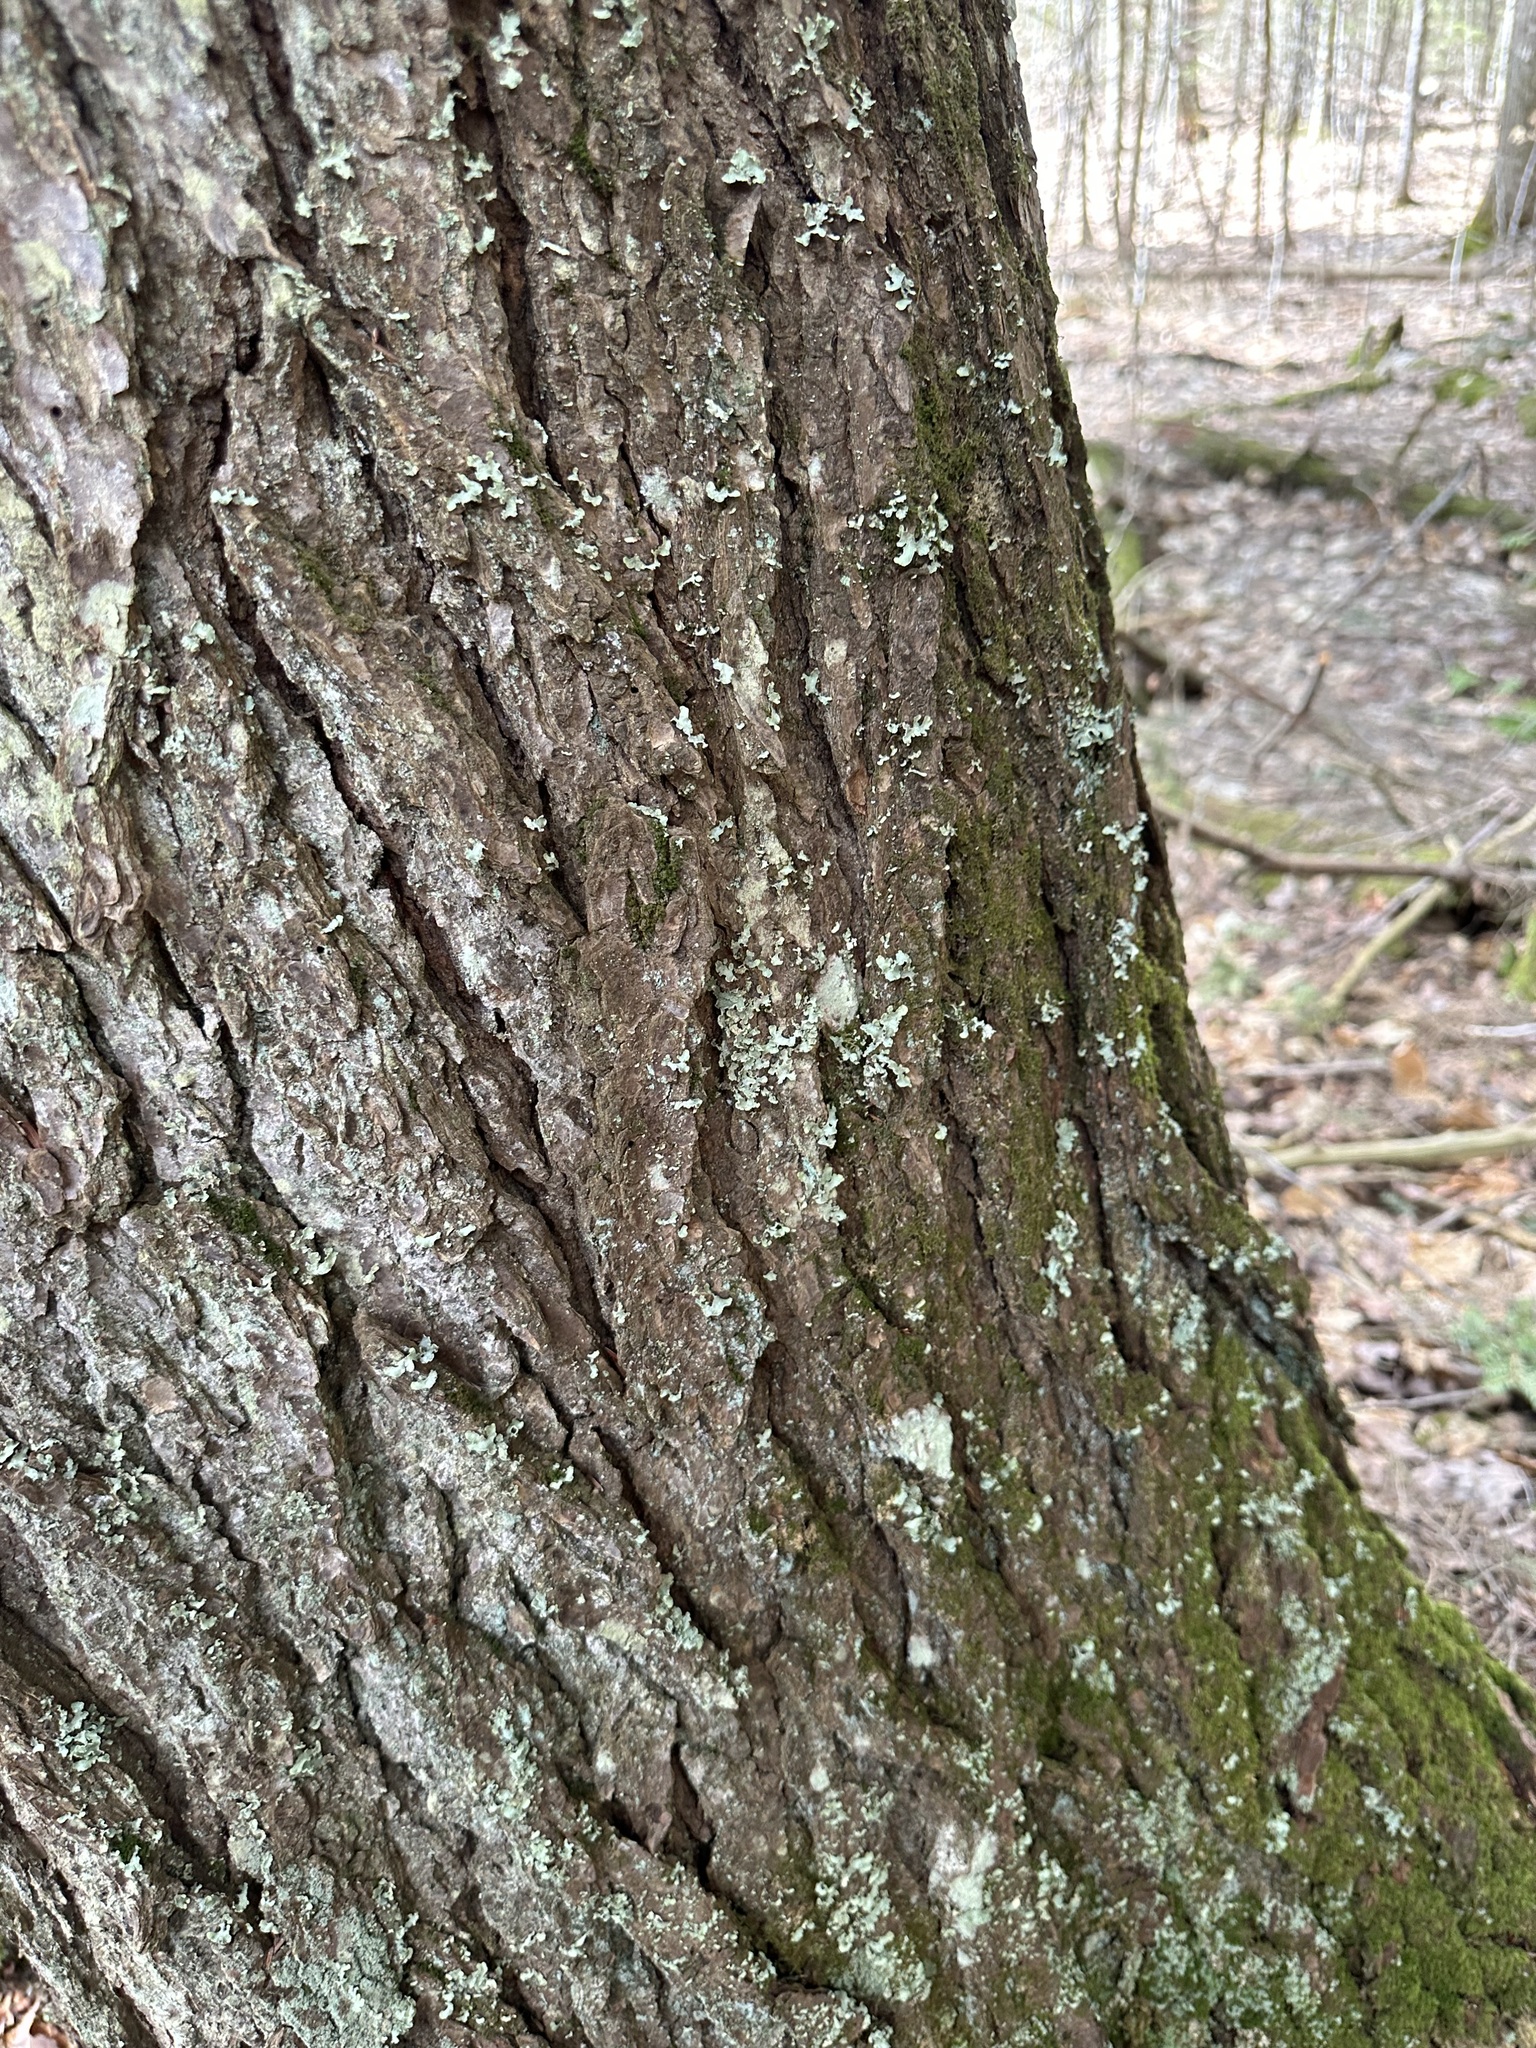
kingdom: Fungi
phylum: Ascomycota
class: Lecanoromycetes
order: Lecanorales
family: Parmeliaceae
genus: Usnocetraria
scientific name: Usnocetraria oakesiana
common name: Yellow ribbon lichen
